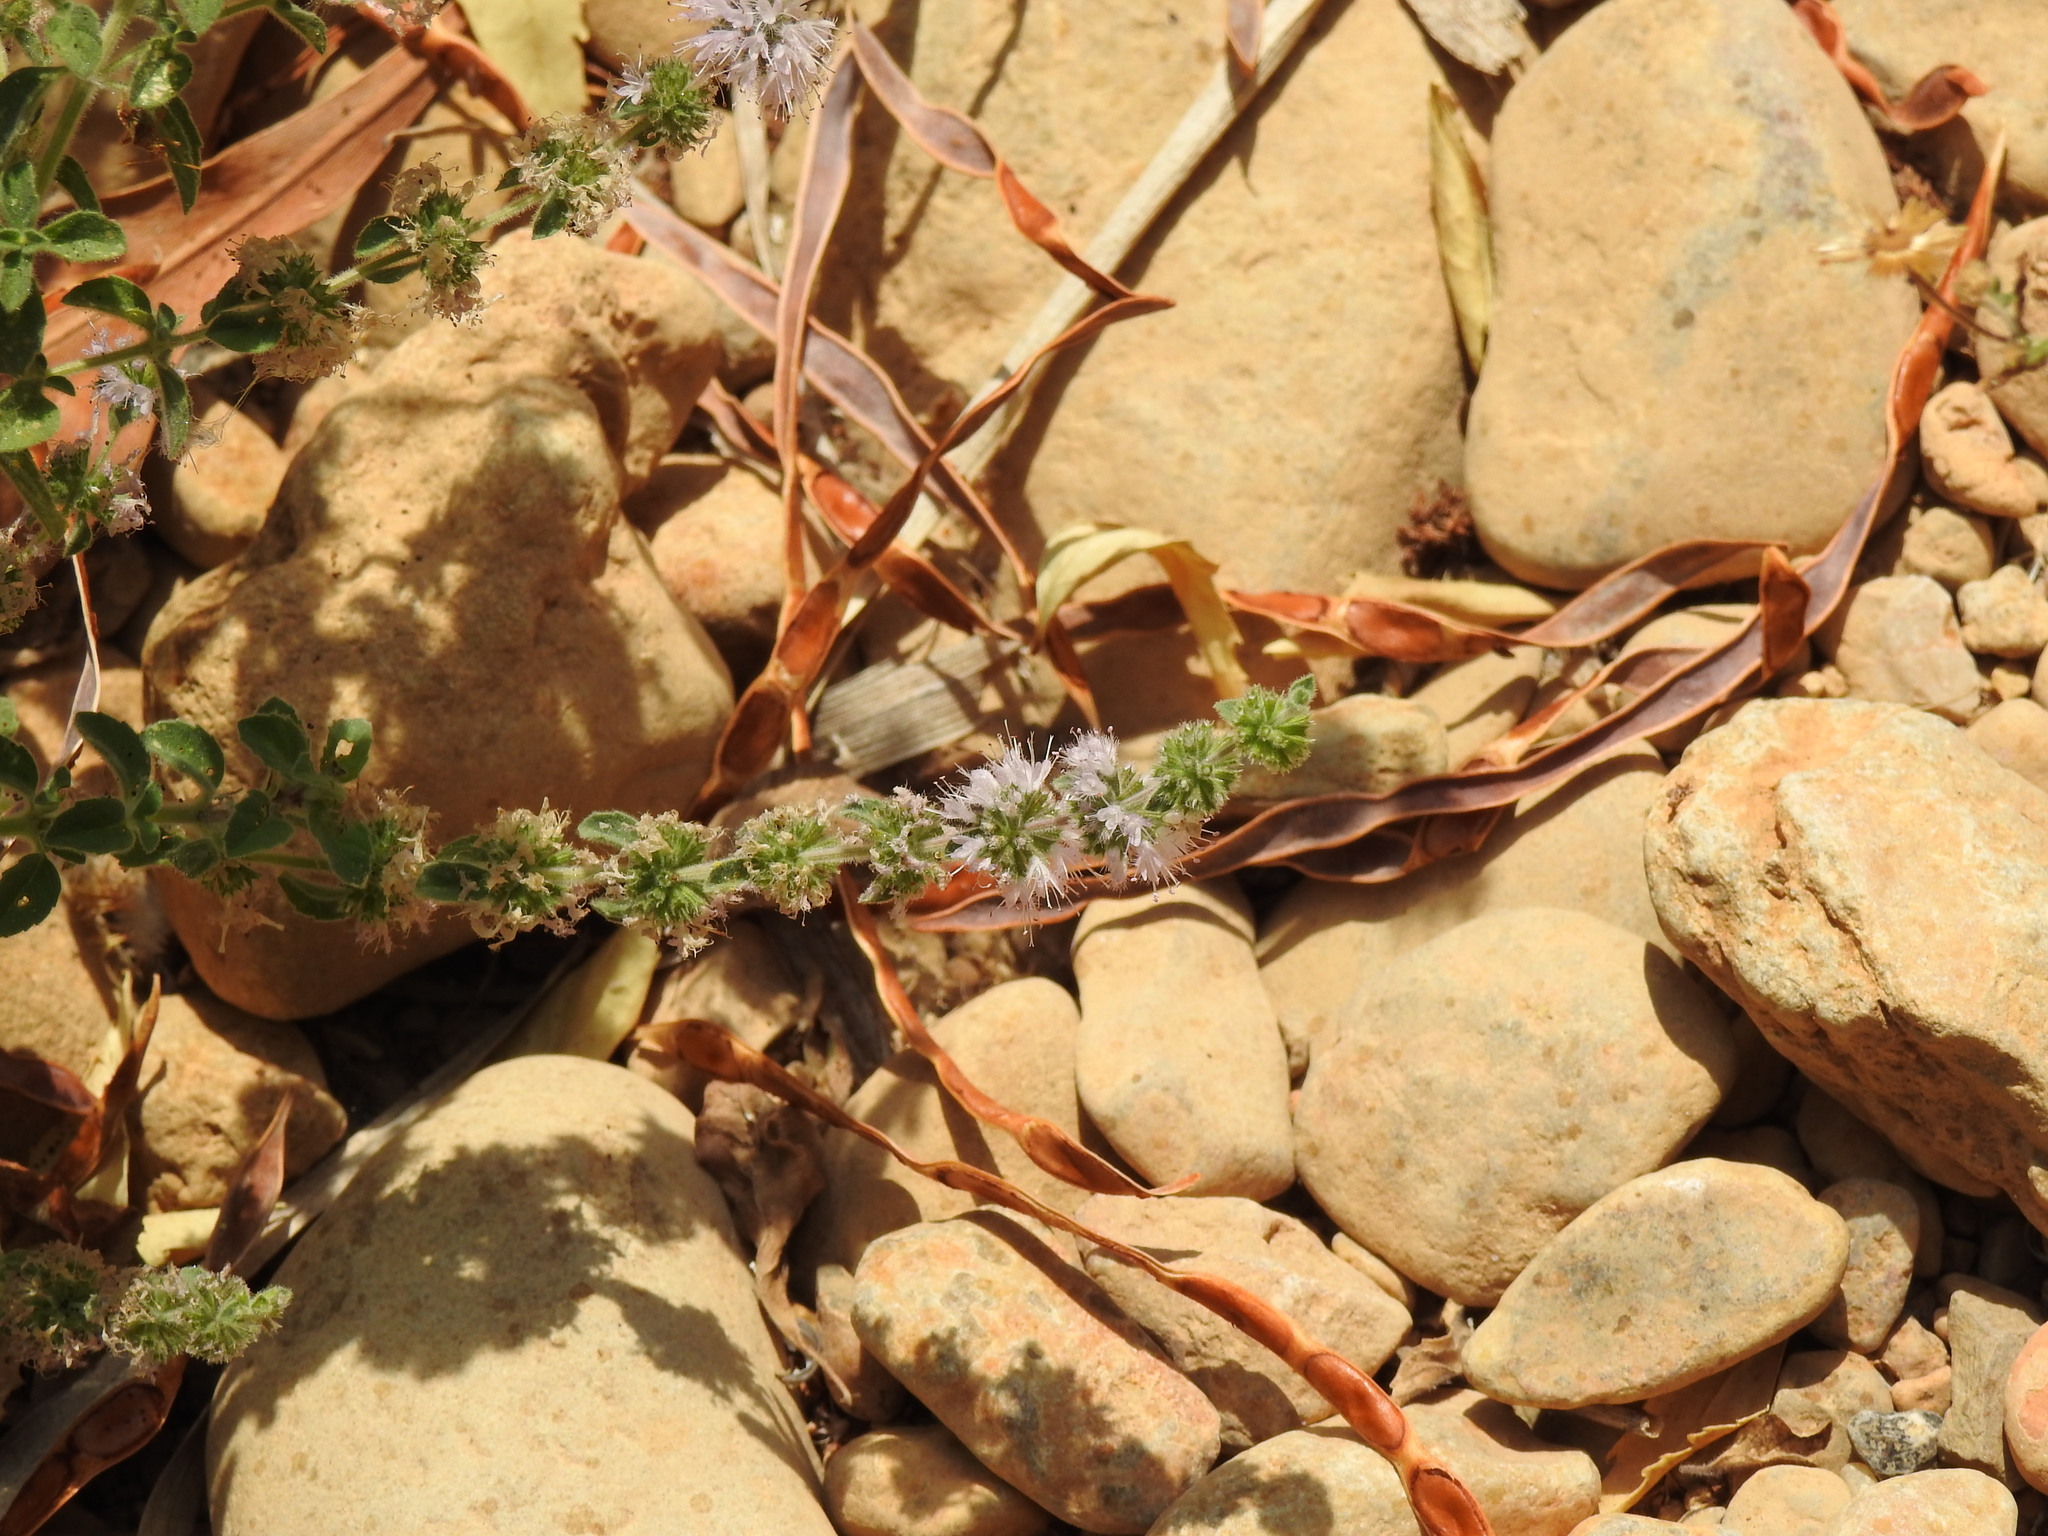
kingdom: Plantae
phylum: Tracheophyta
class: Magnoliopsida
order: Lamiales
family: Lamiaceae
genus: Mentha
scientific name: Mentha pulegium
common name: Pennyroyal
